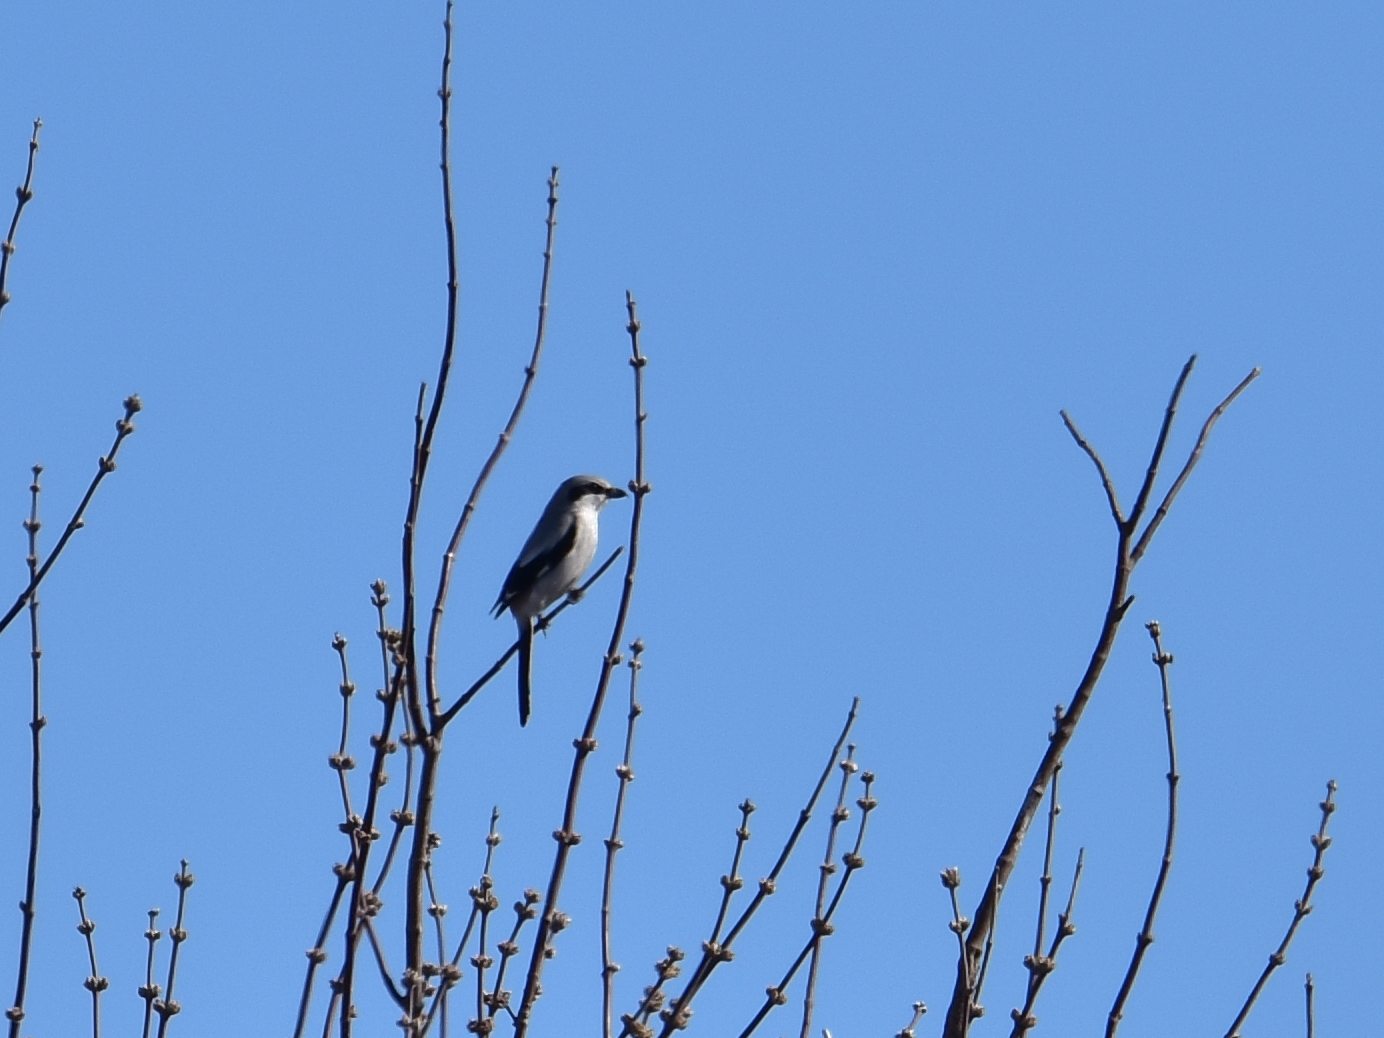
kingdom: Animalia
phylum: Chordata
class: Aves
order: Passeriformes
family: Laniidae
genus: Lanius
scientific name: Lanius excubitor
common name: Great grey shrike
